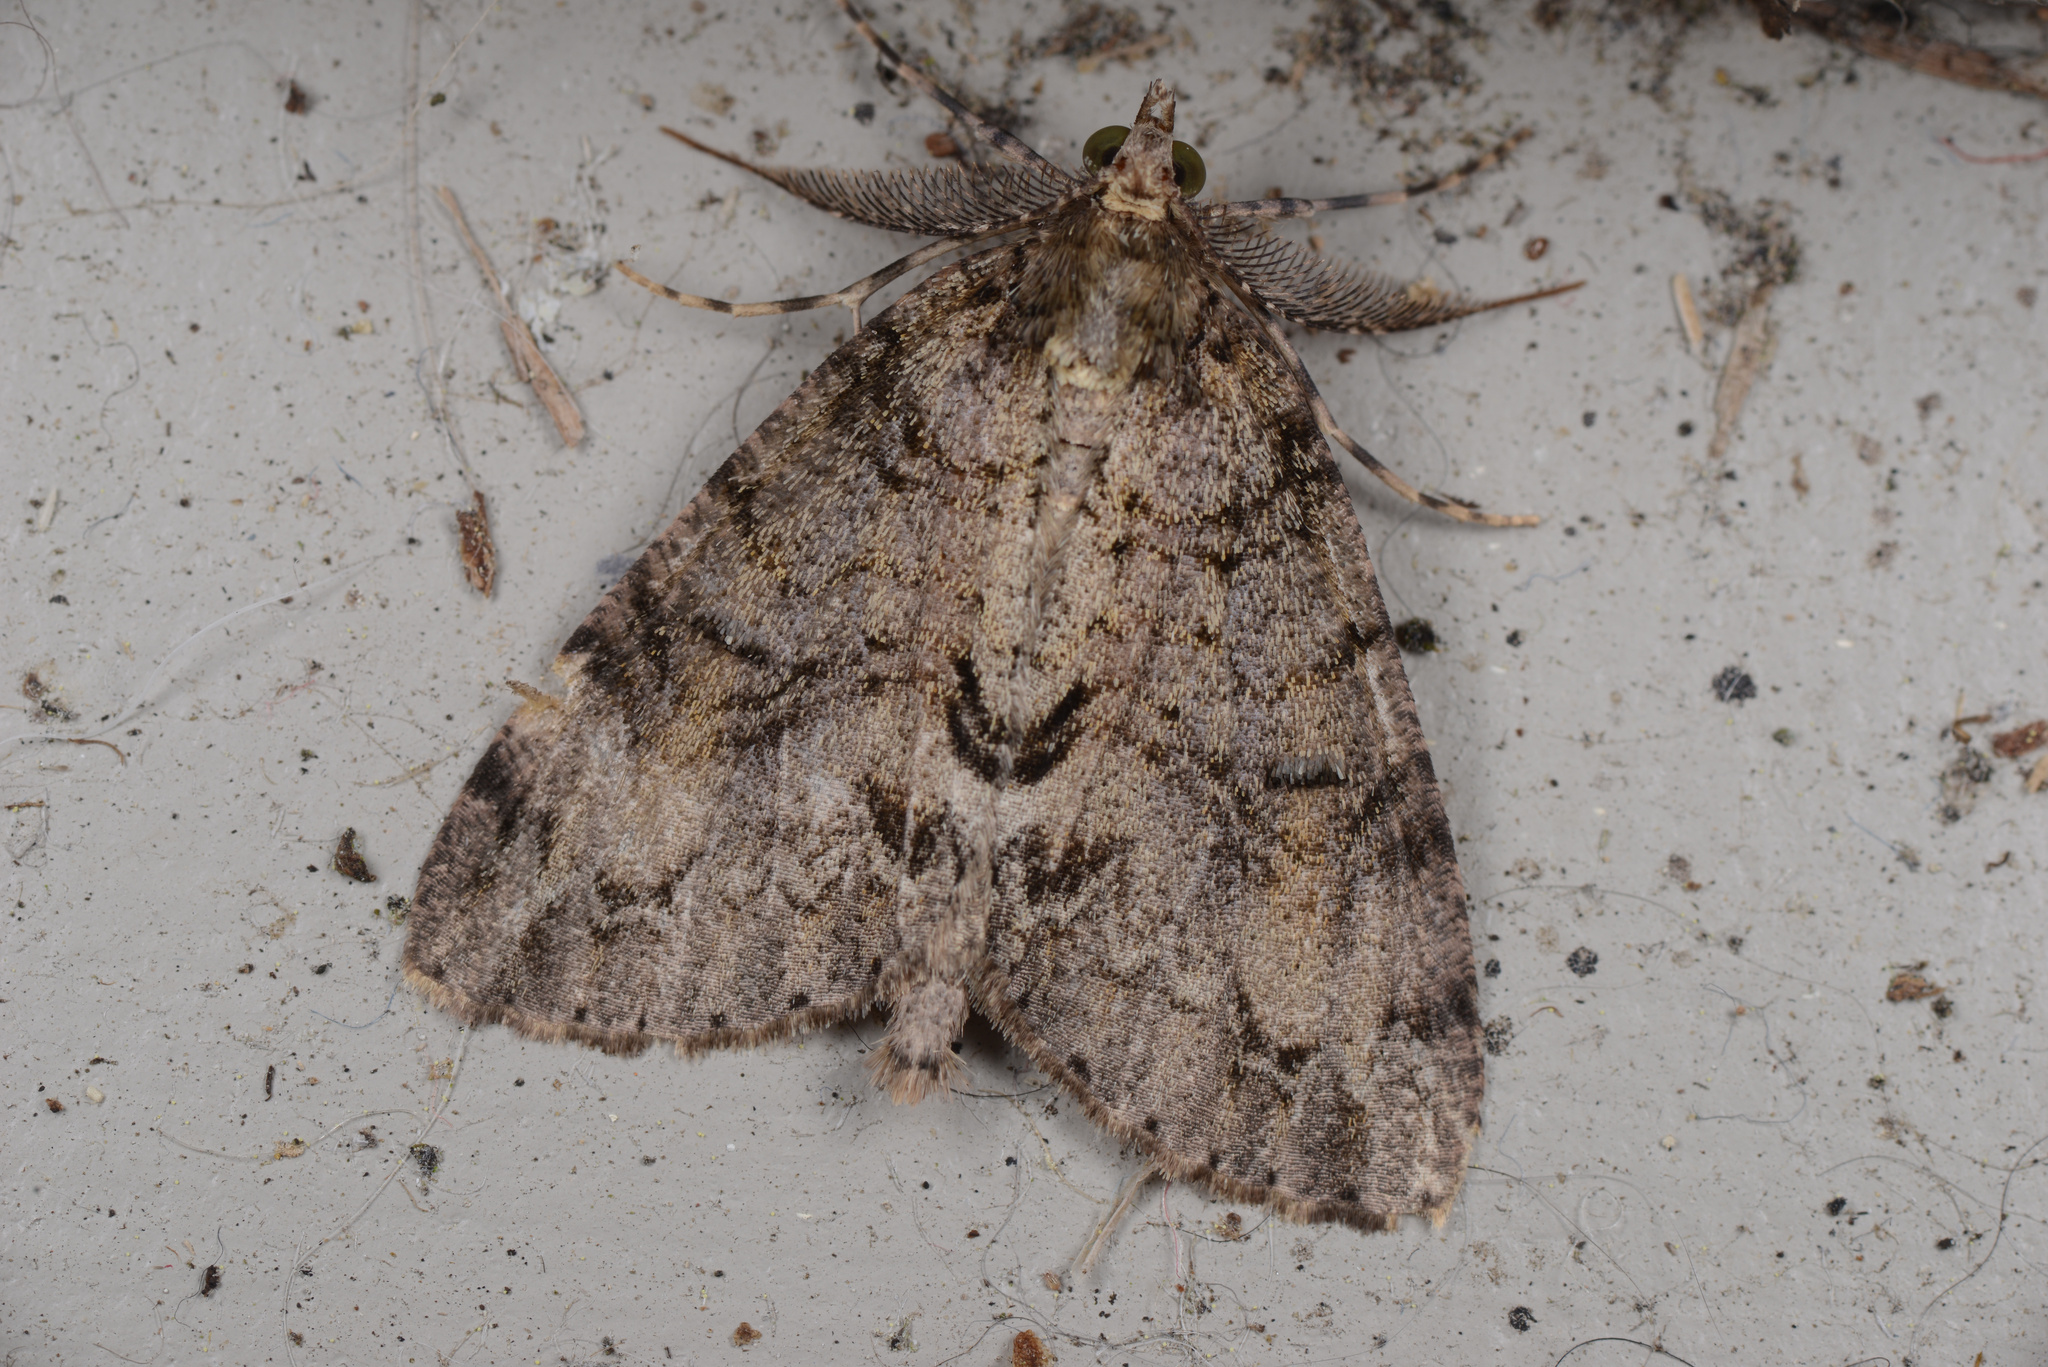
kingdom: Animalia
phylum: Arthropoda
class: Insecta
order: Lepidoptera
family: Geometridae
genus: Pseudocoremia
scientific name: Pseudocoremia suavis
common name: Common forest looper
